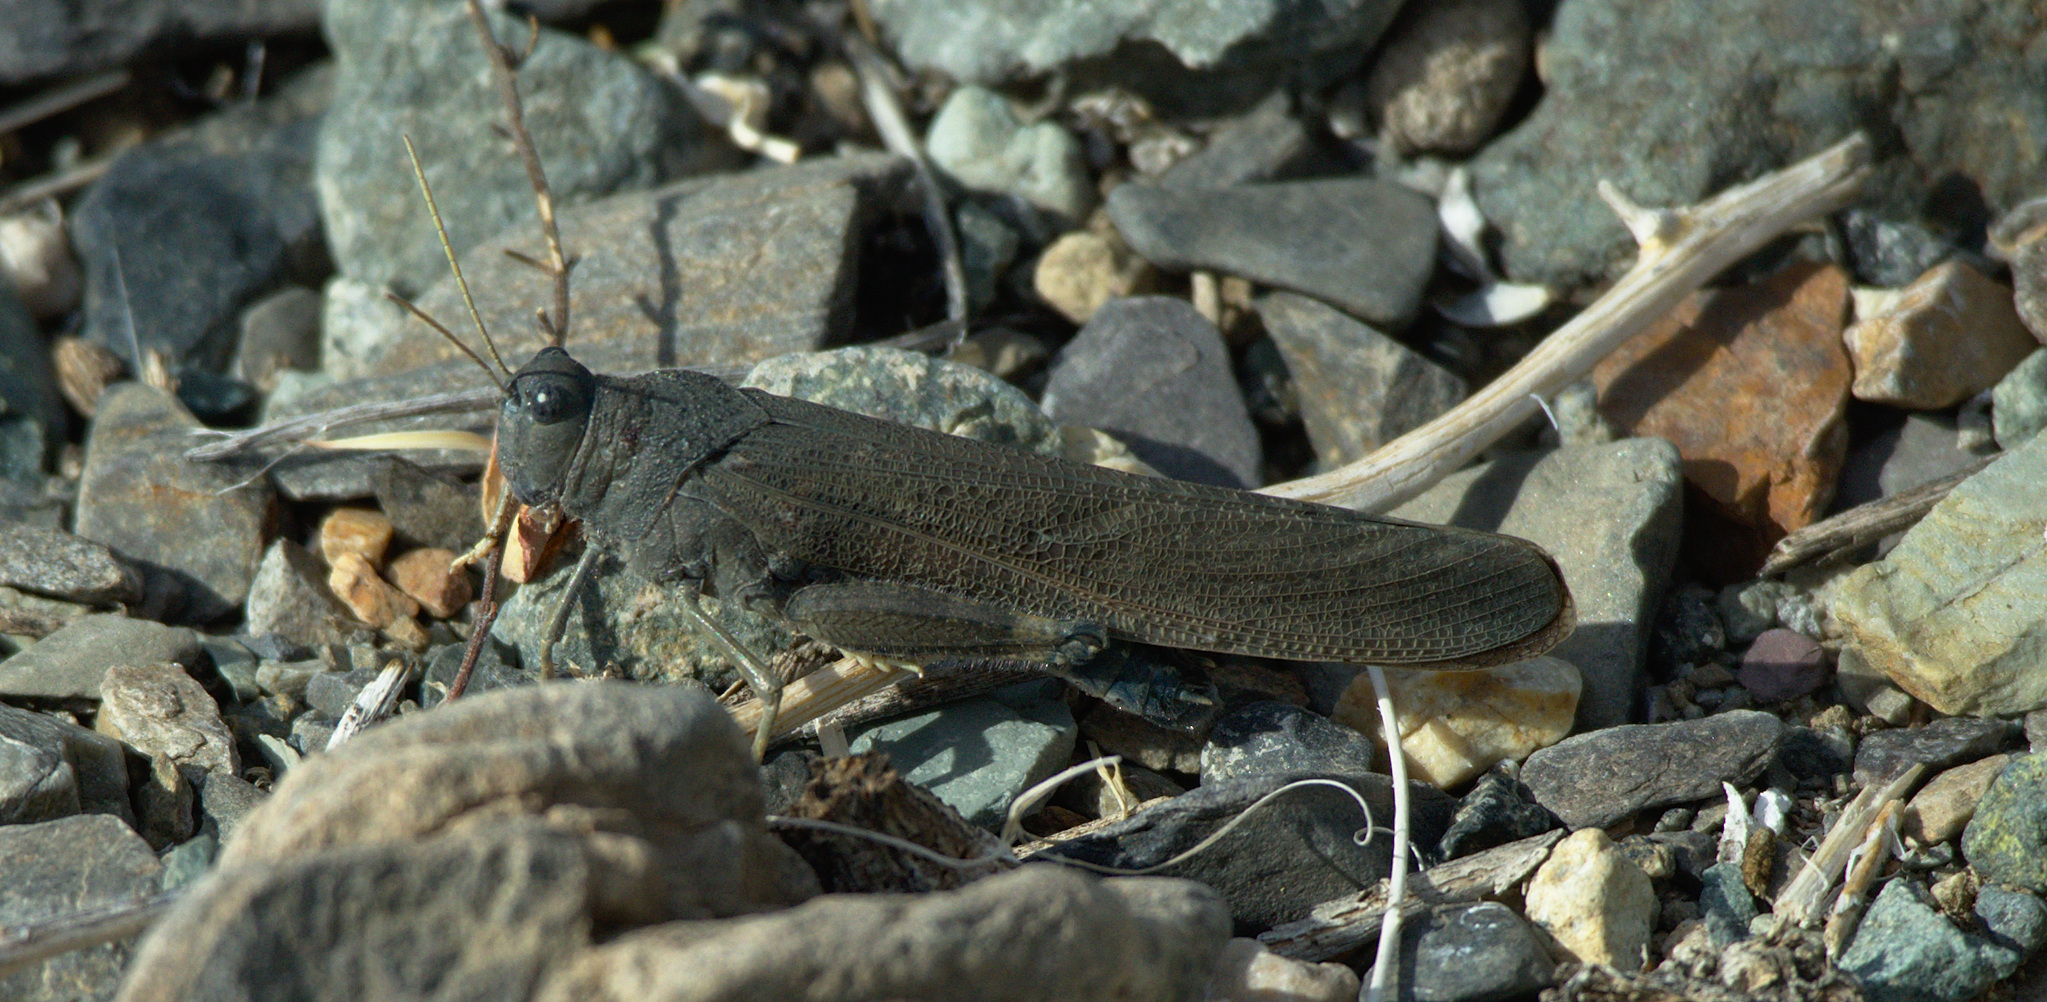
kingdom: Animalia
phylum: Arthropoda
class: Insecta
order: Orthoptera
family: Acrididae
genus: Bryodema
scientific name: Bryodema gebleri
